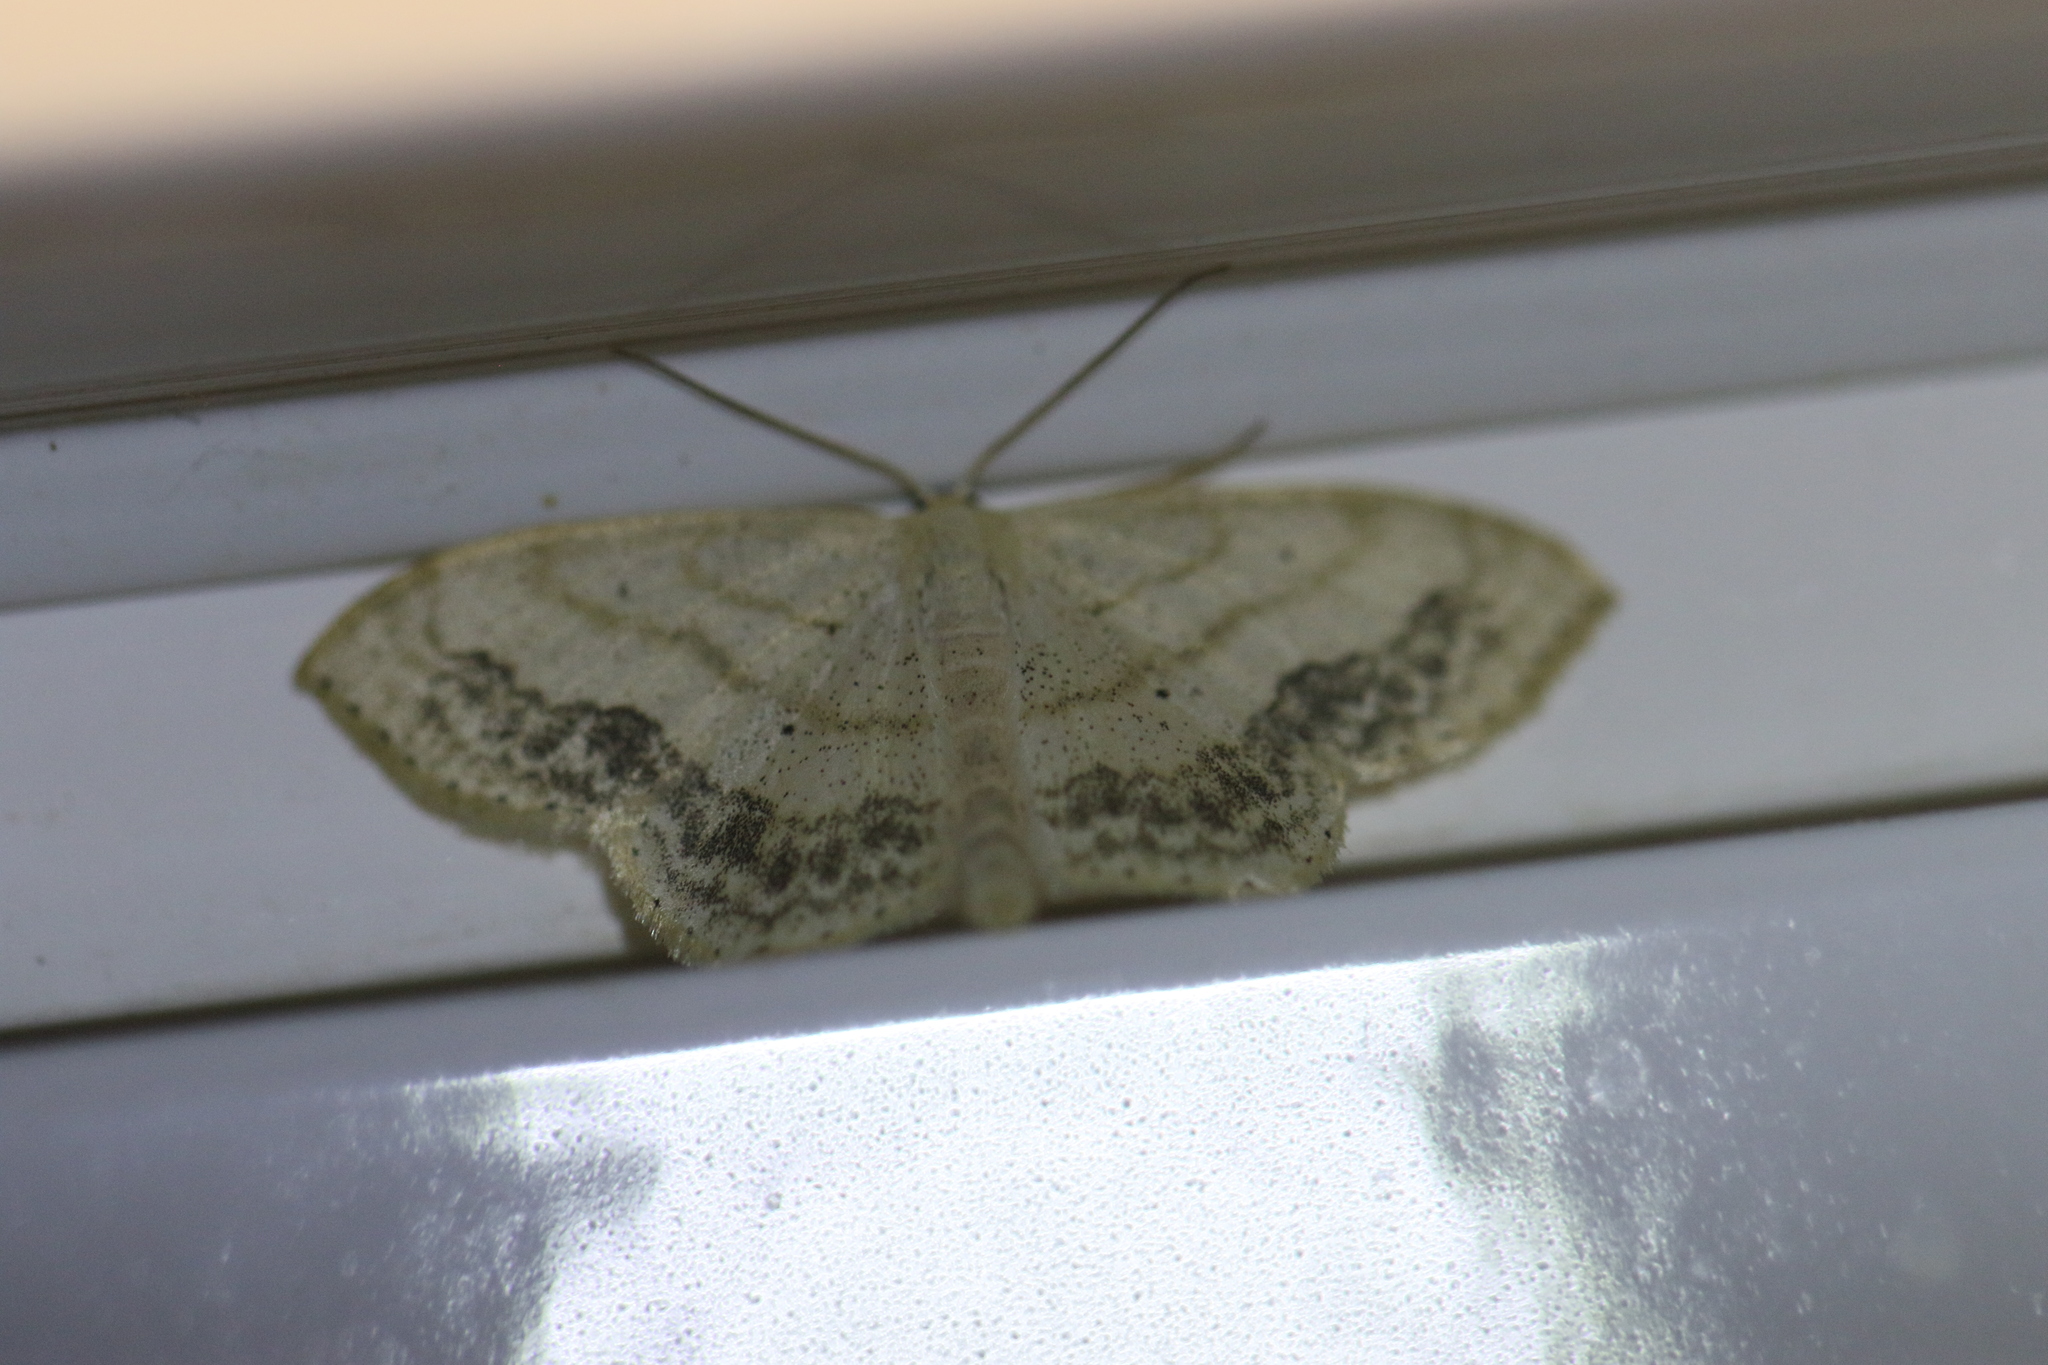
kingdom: Animalia
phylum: Arthropoda
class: Insecta
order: Lepidoptera
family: Geometridae
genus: Scopula
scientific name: Scopula limboundata
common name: Large lace border
